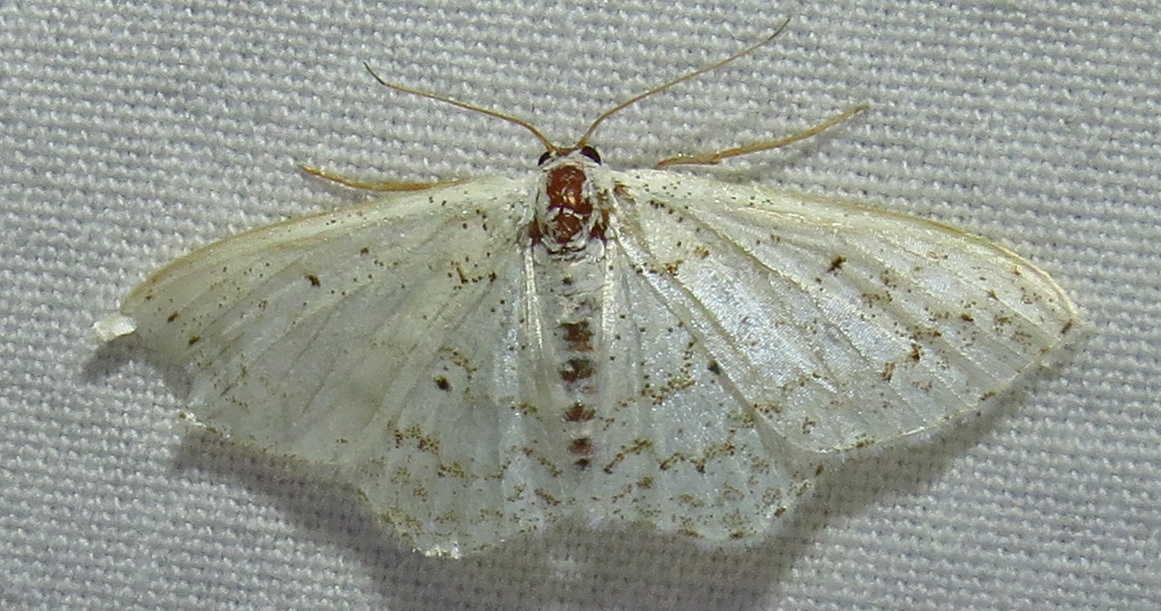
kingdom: Animalia
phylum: Arthropoda
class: Insecta
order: Lepidoptera
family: Geometridae
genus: Idaea
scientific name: Idaea tacturata
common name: Dot-lined wave
